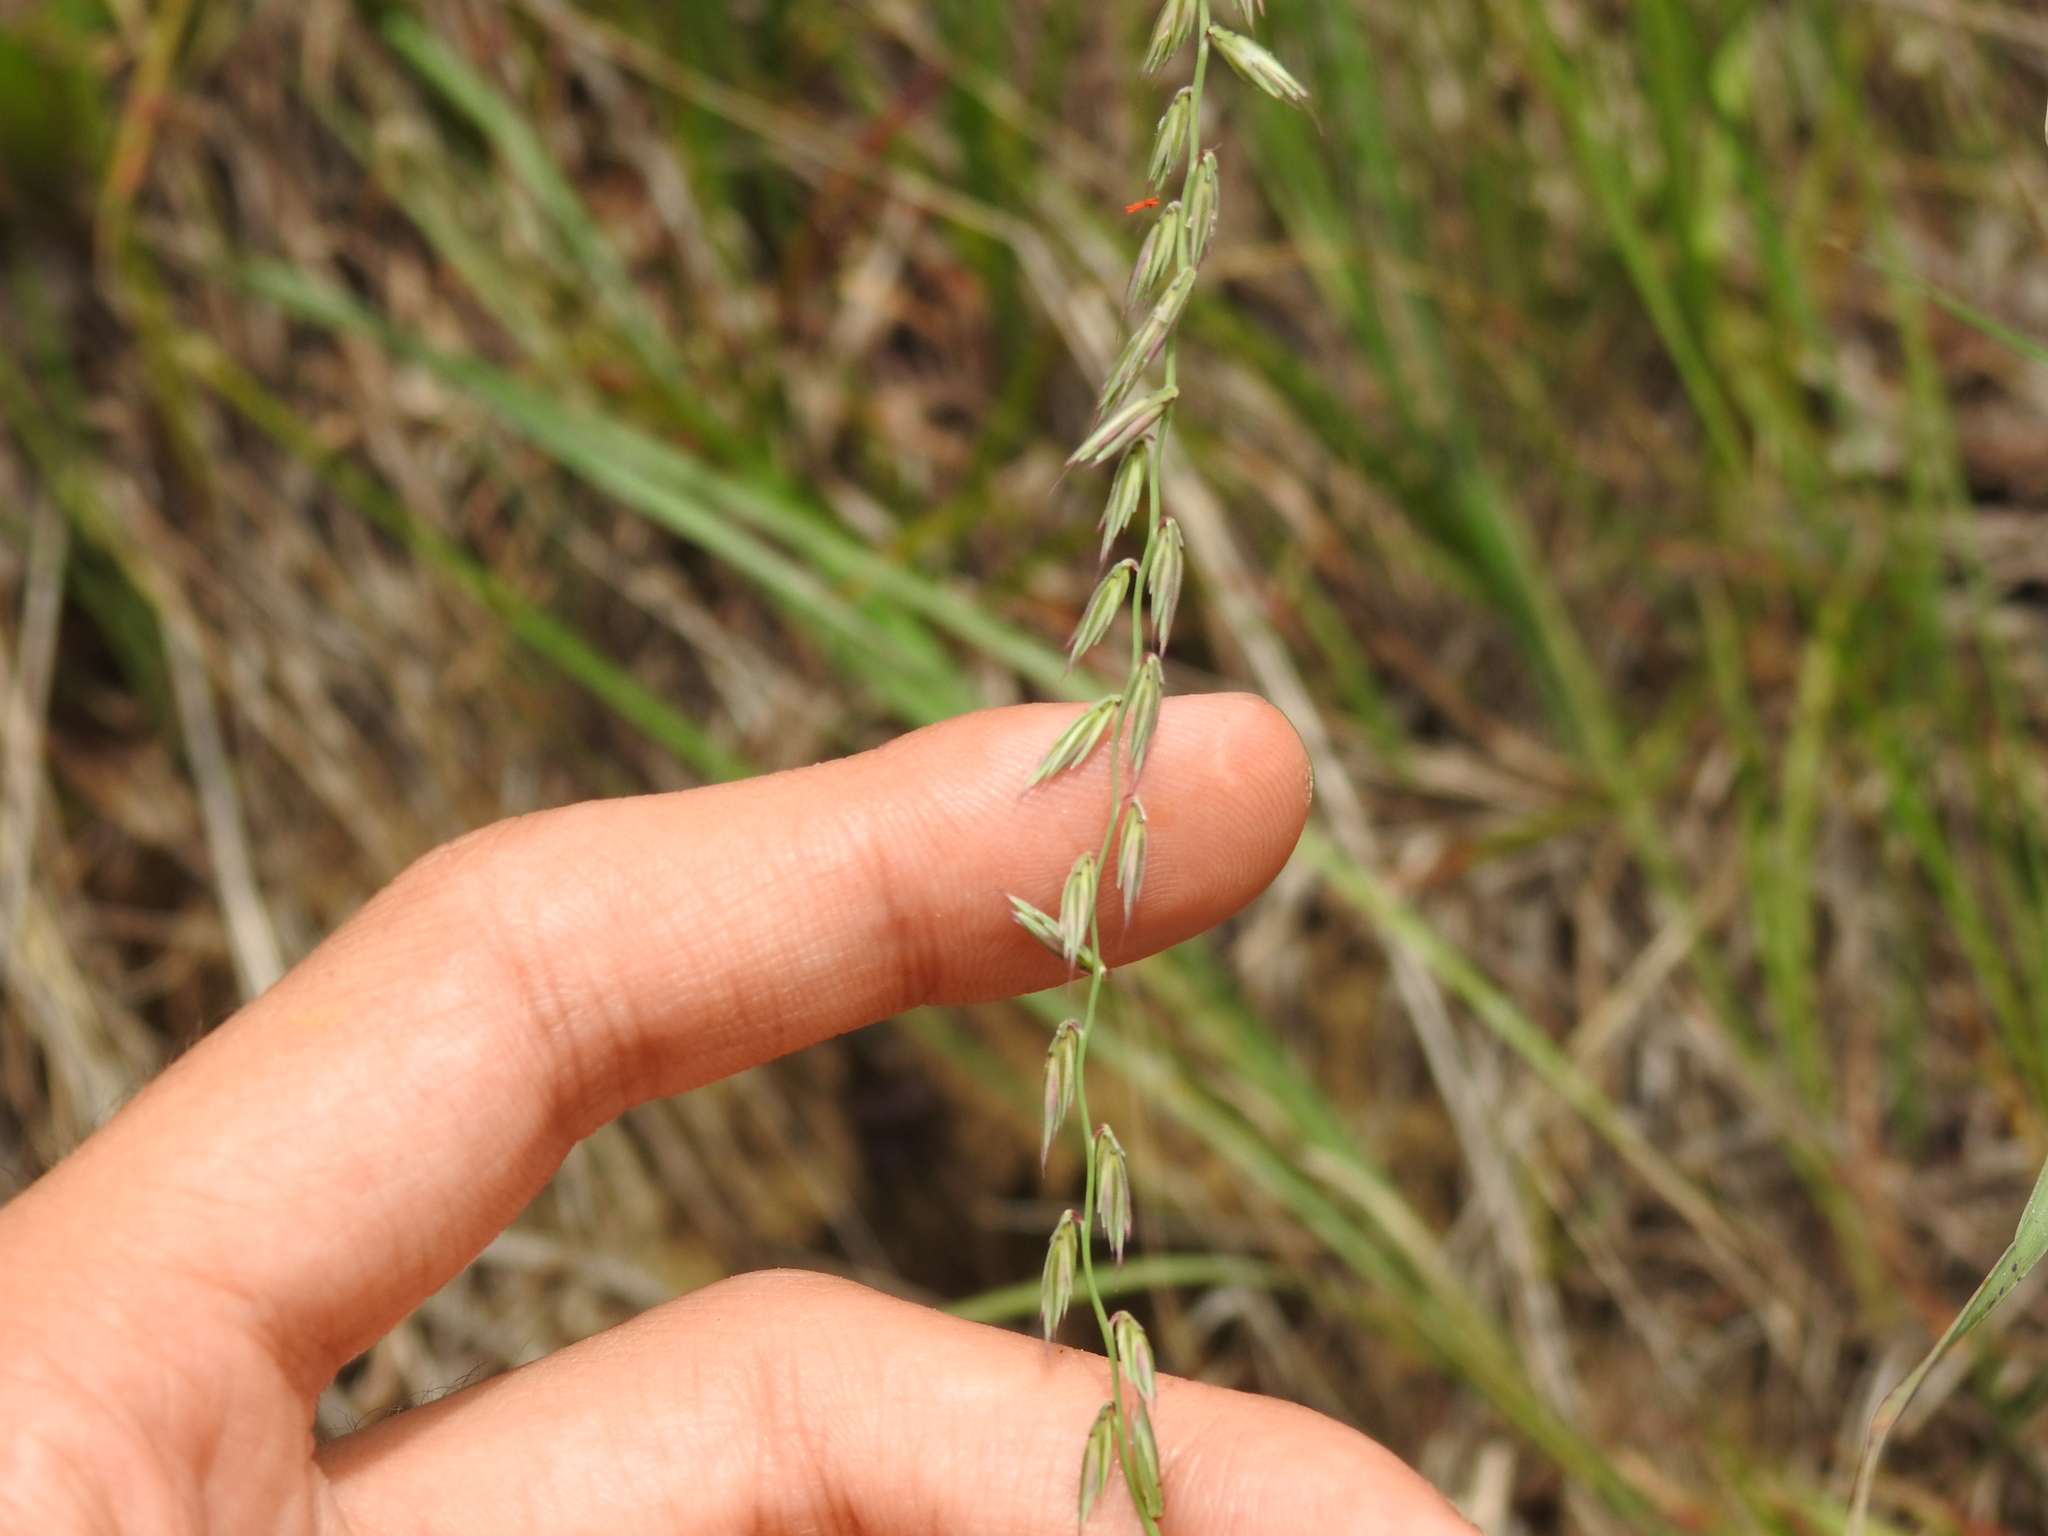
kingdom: Plantae
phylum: Tracheophyta
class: Liliopsida
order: Poales
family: Poaceae
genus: Bouteloua
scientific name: Bouteloua curtipendula
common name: Side-oats grama
